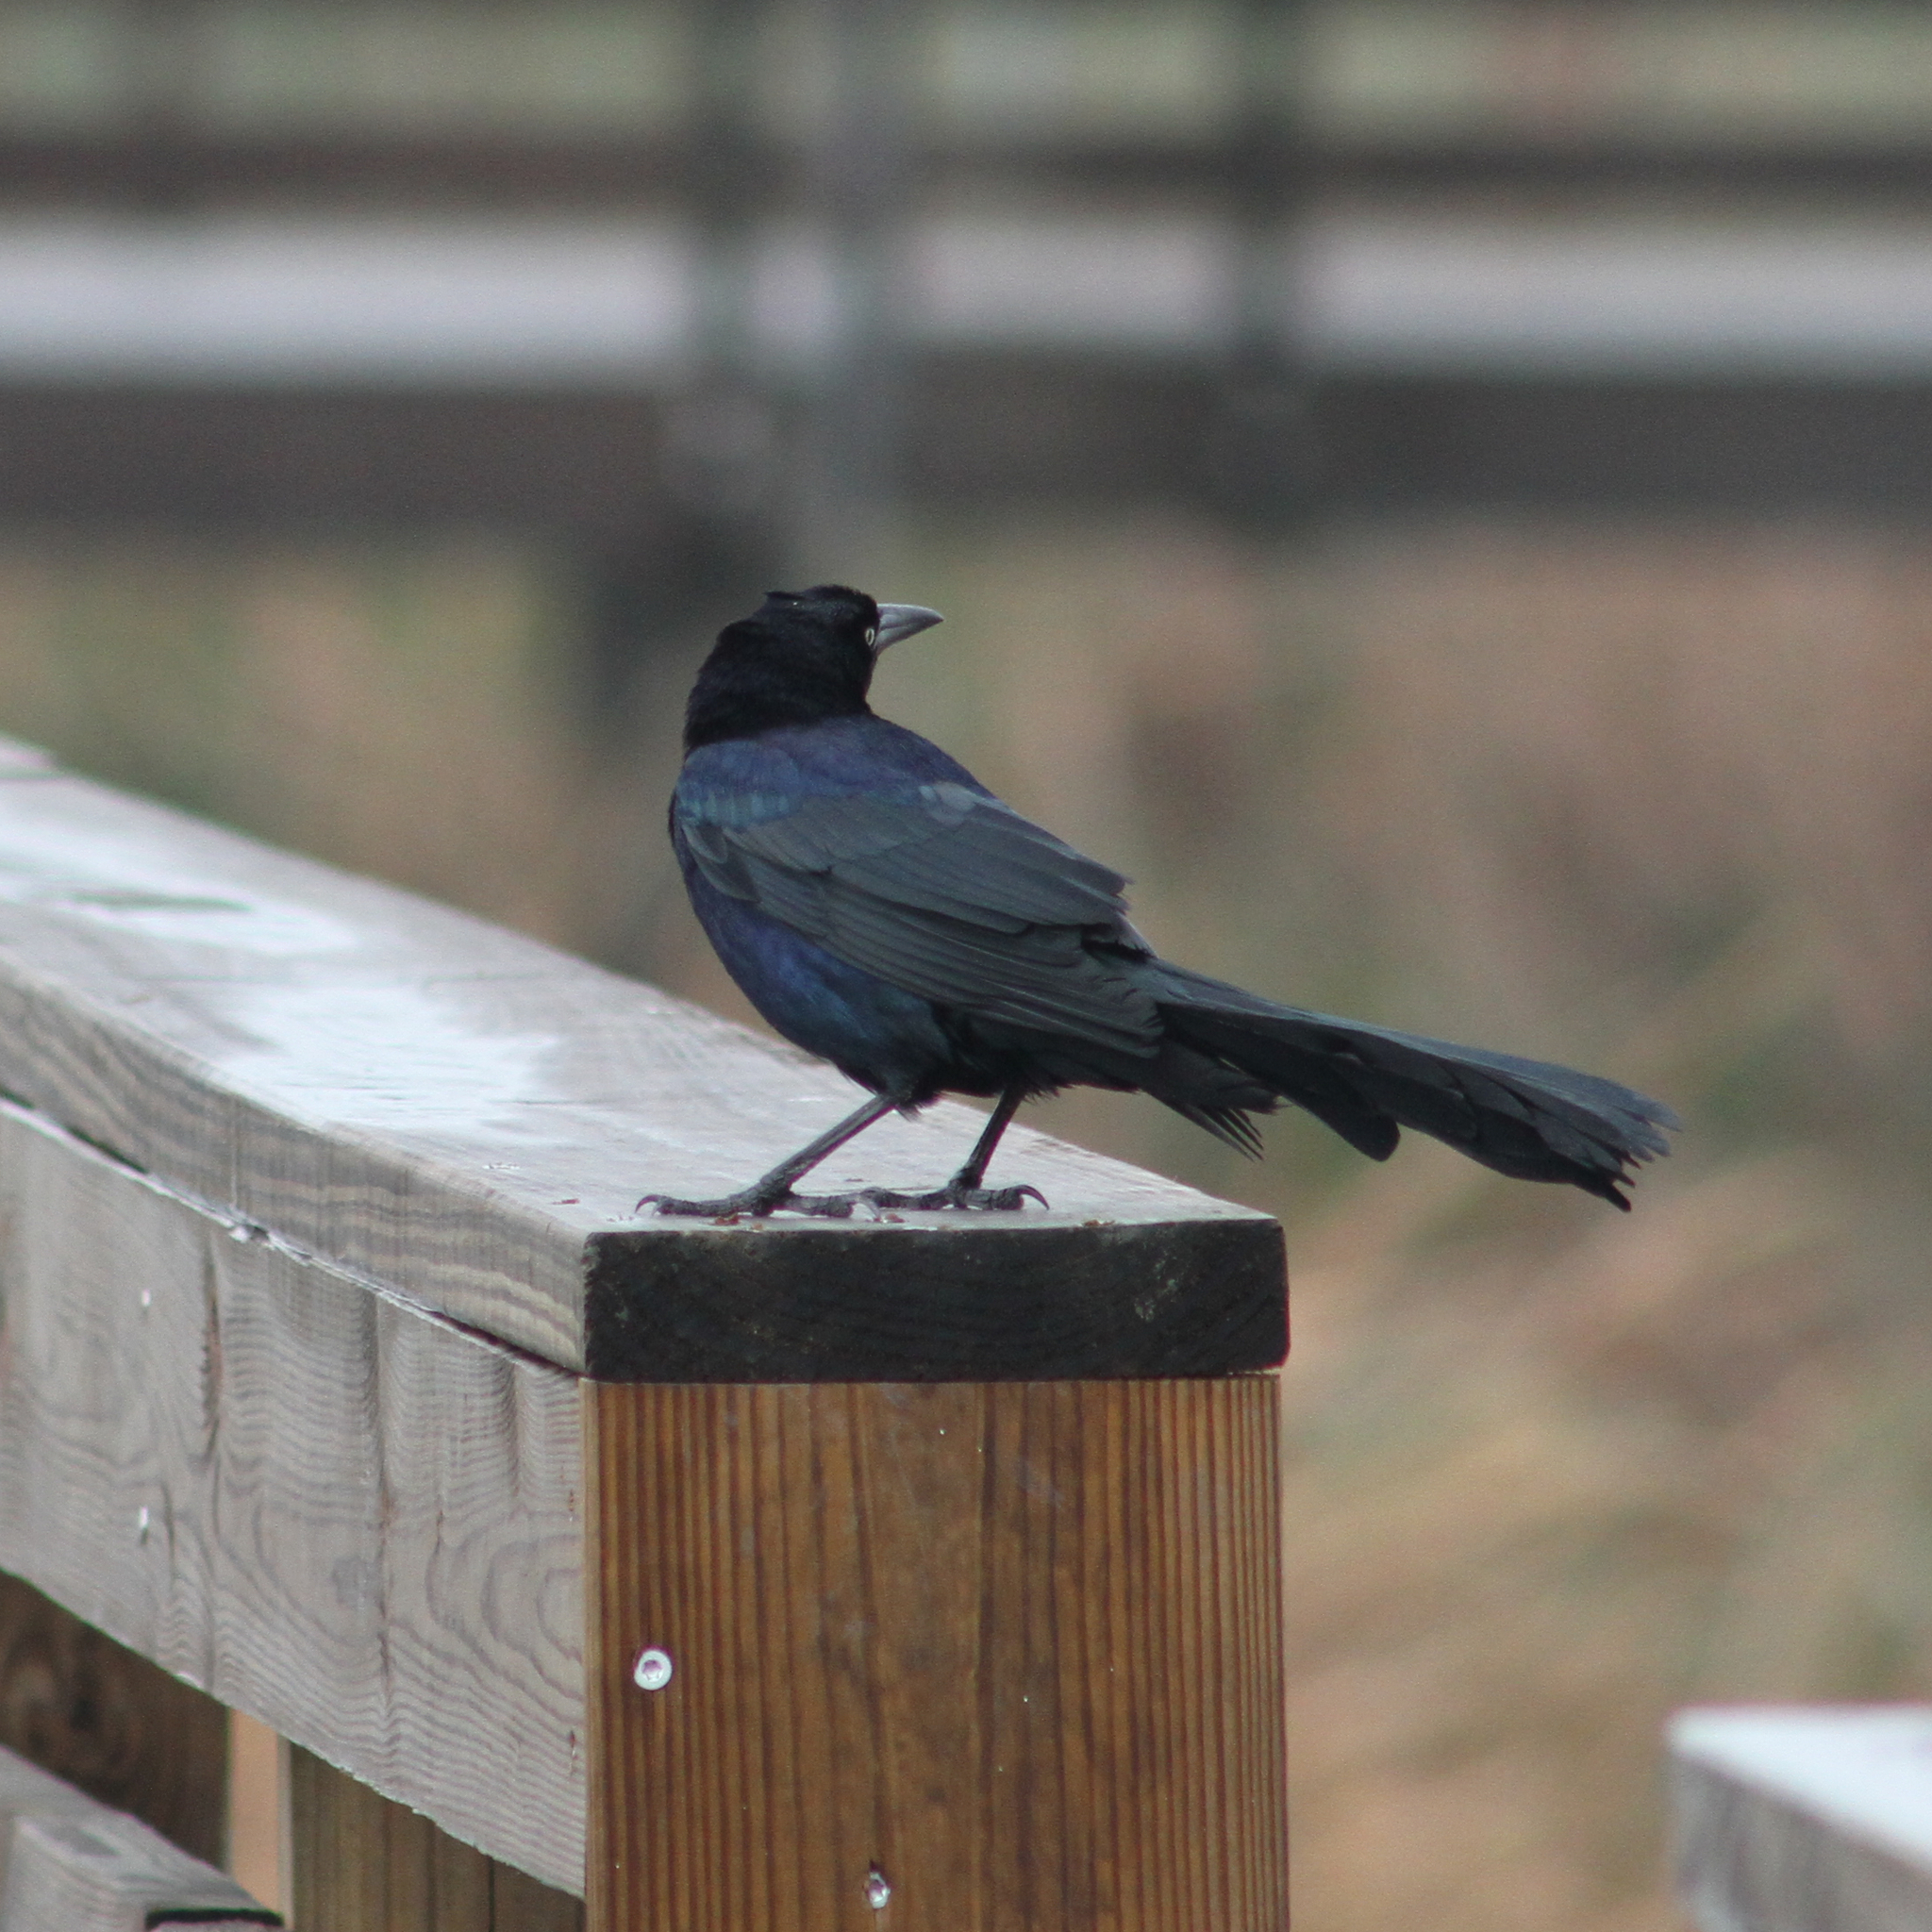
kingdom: Animalia
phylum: Chordata
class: Aves
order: Passeriformes
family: Icteridae
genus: Quiscalus
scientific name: Quiscalus mexicanus
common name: Great-tailed grackle
